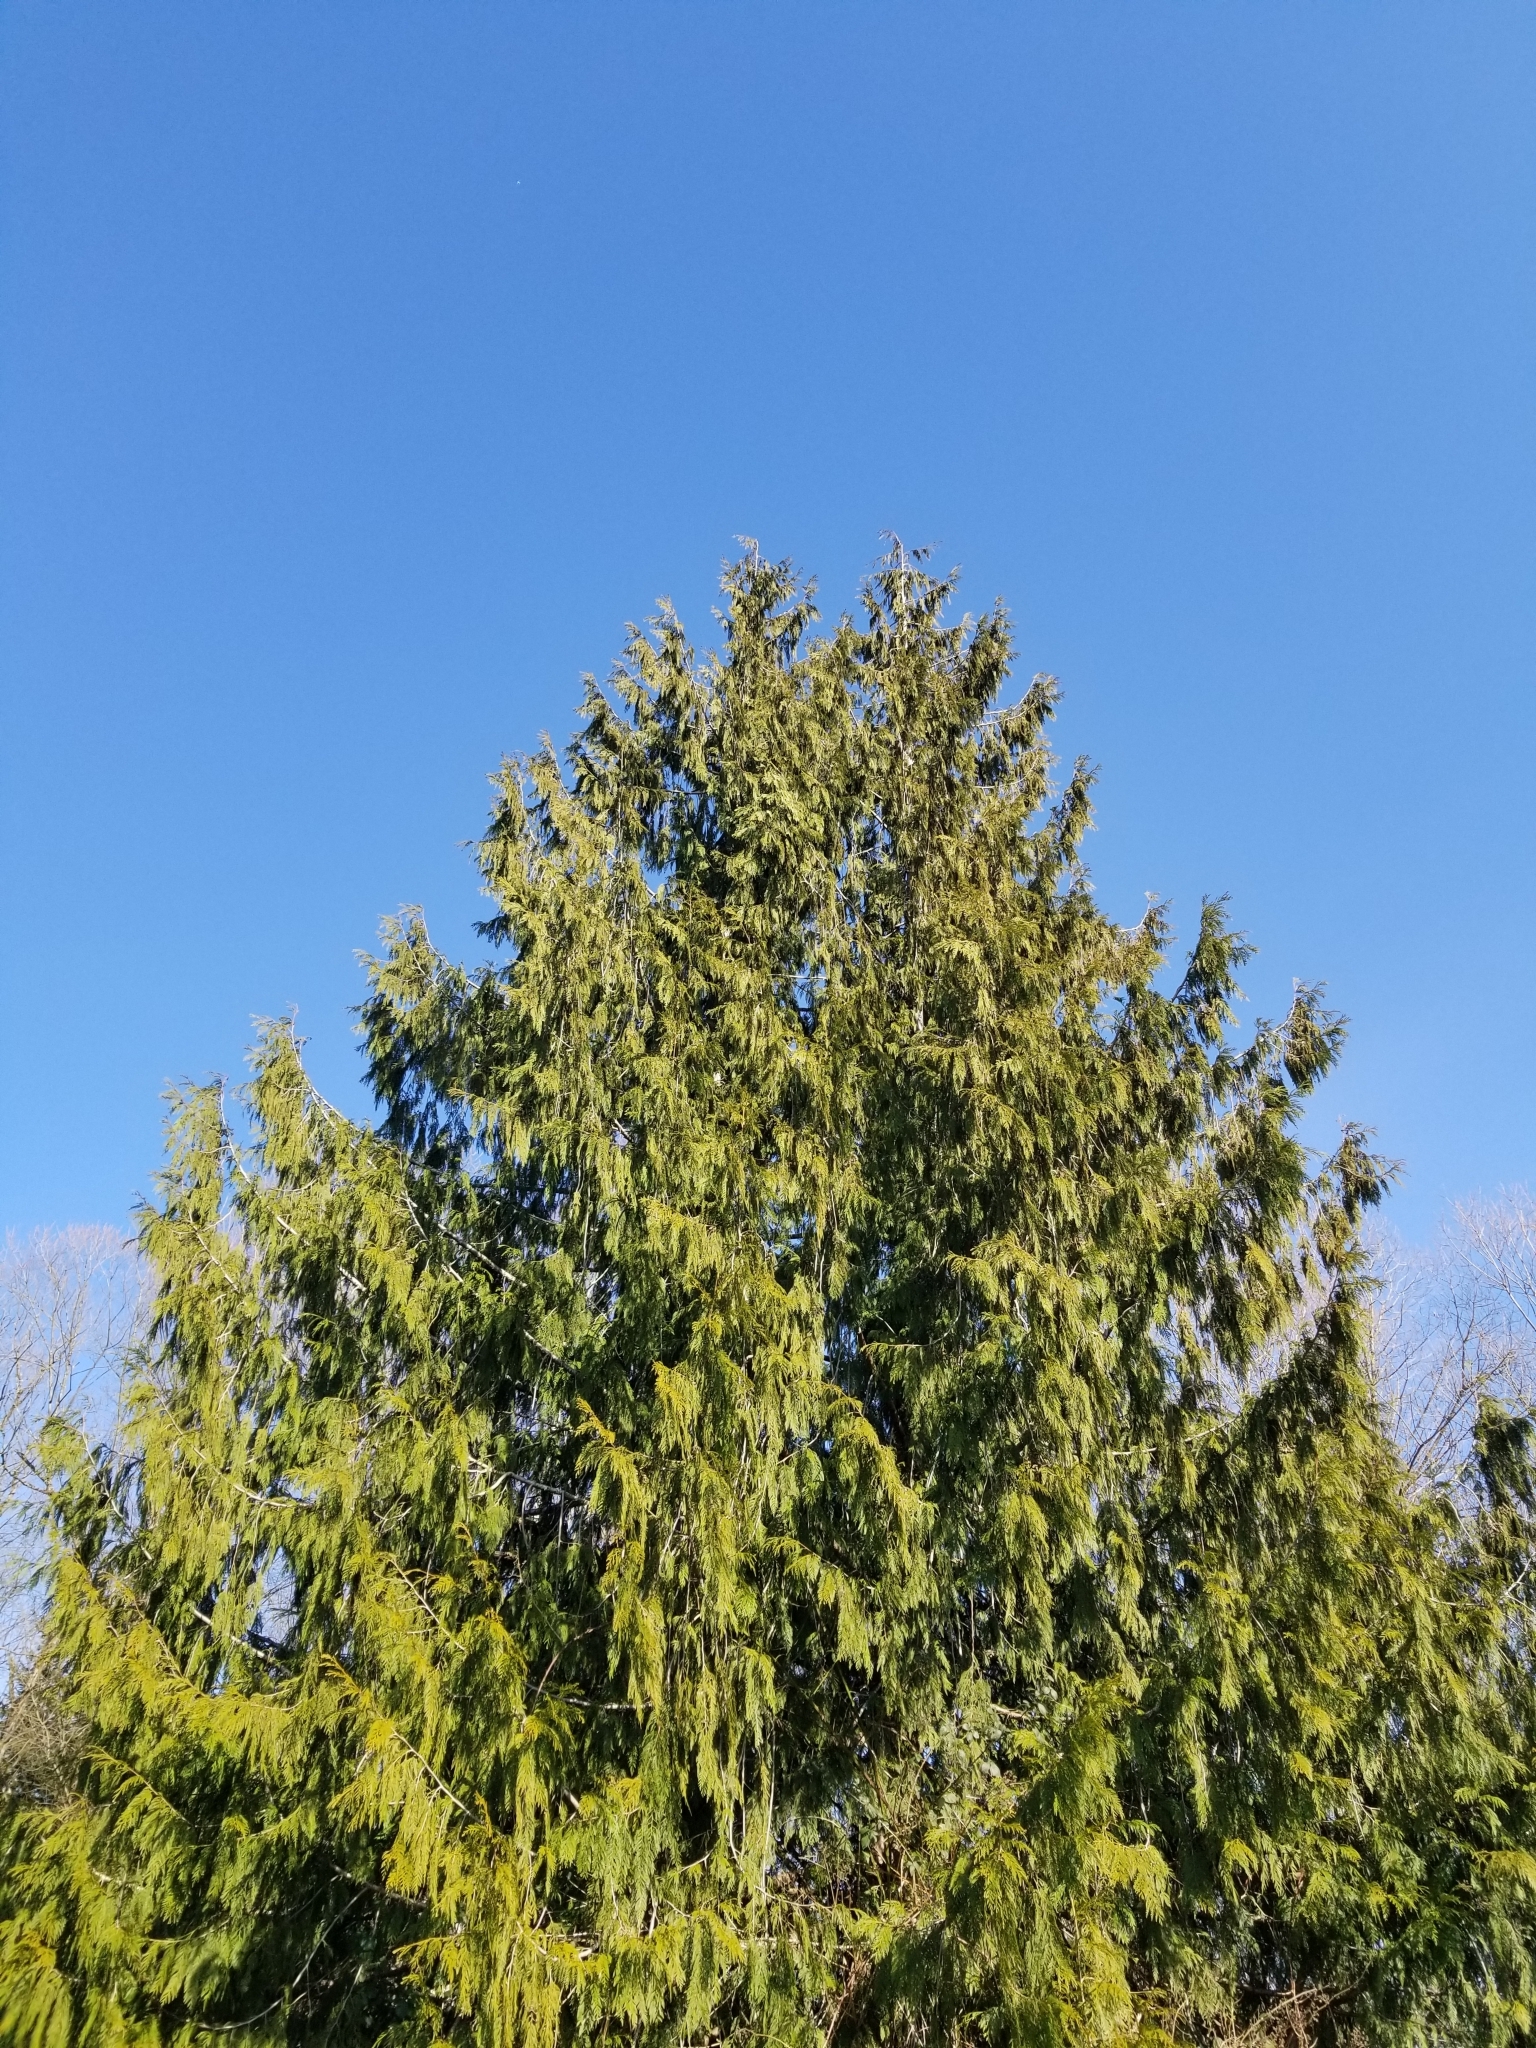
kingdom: Plantae
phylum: Tracheophyta
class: Pinopsida
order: Pinales
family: Cupressaceae
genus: Thuja
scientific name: Thuja plicata
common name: Western red-cedar
